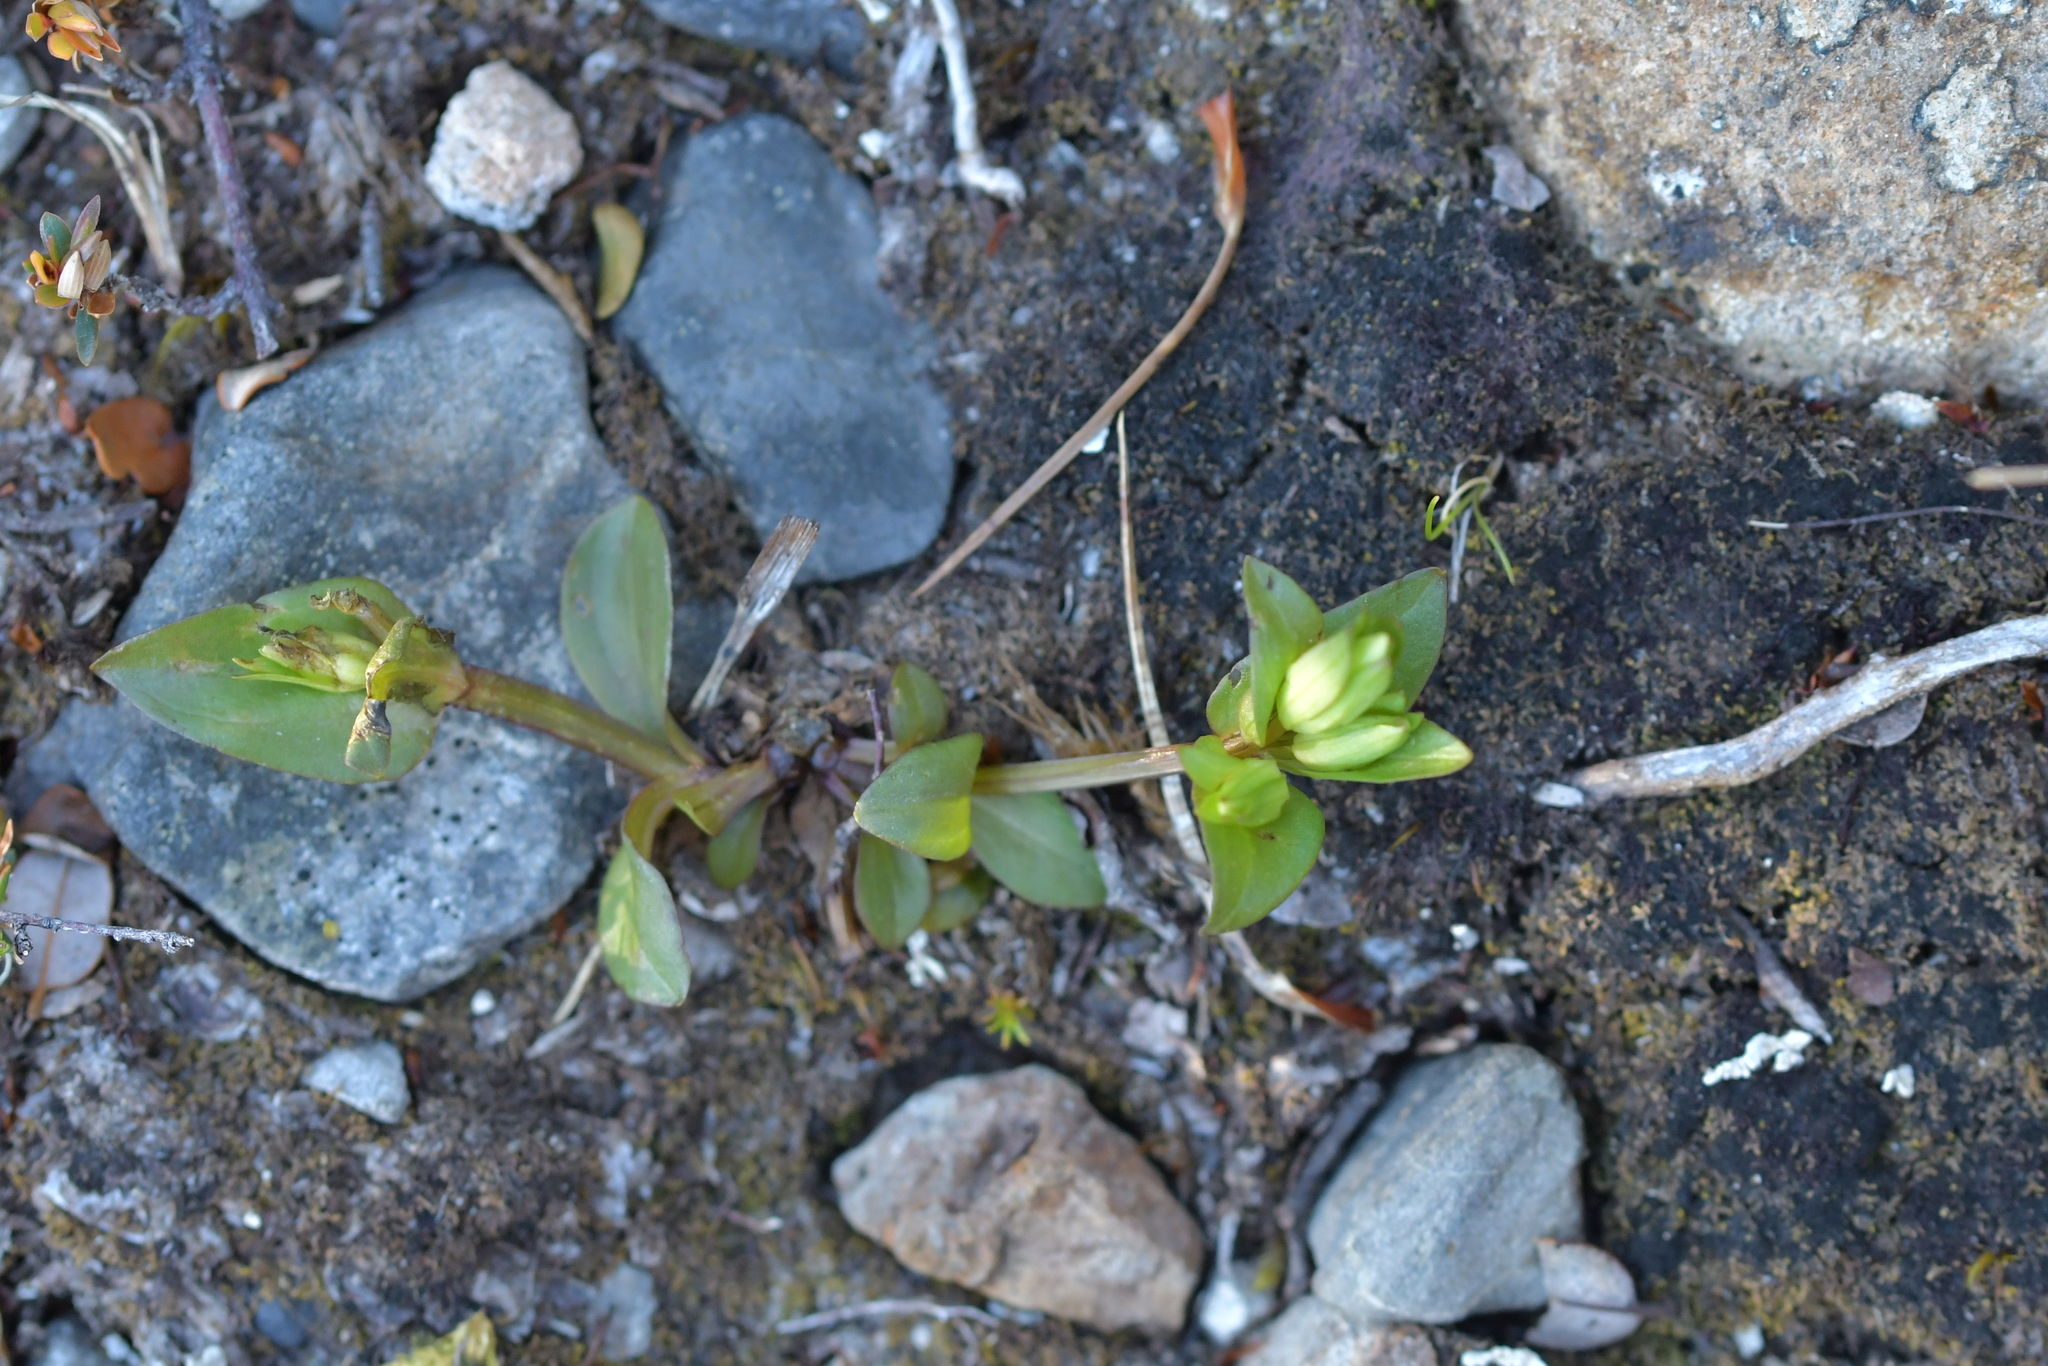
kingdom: Plantae
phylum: Tracheophyta
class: Magnoliopsida
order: Gentianales
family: Gentianaceae
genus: Gentianella
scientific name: Gentianella montana
